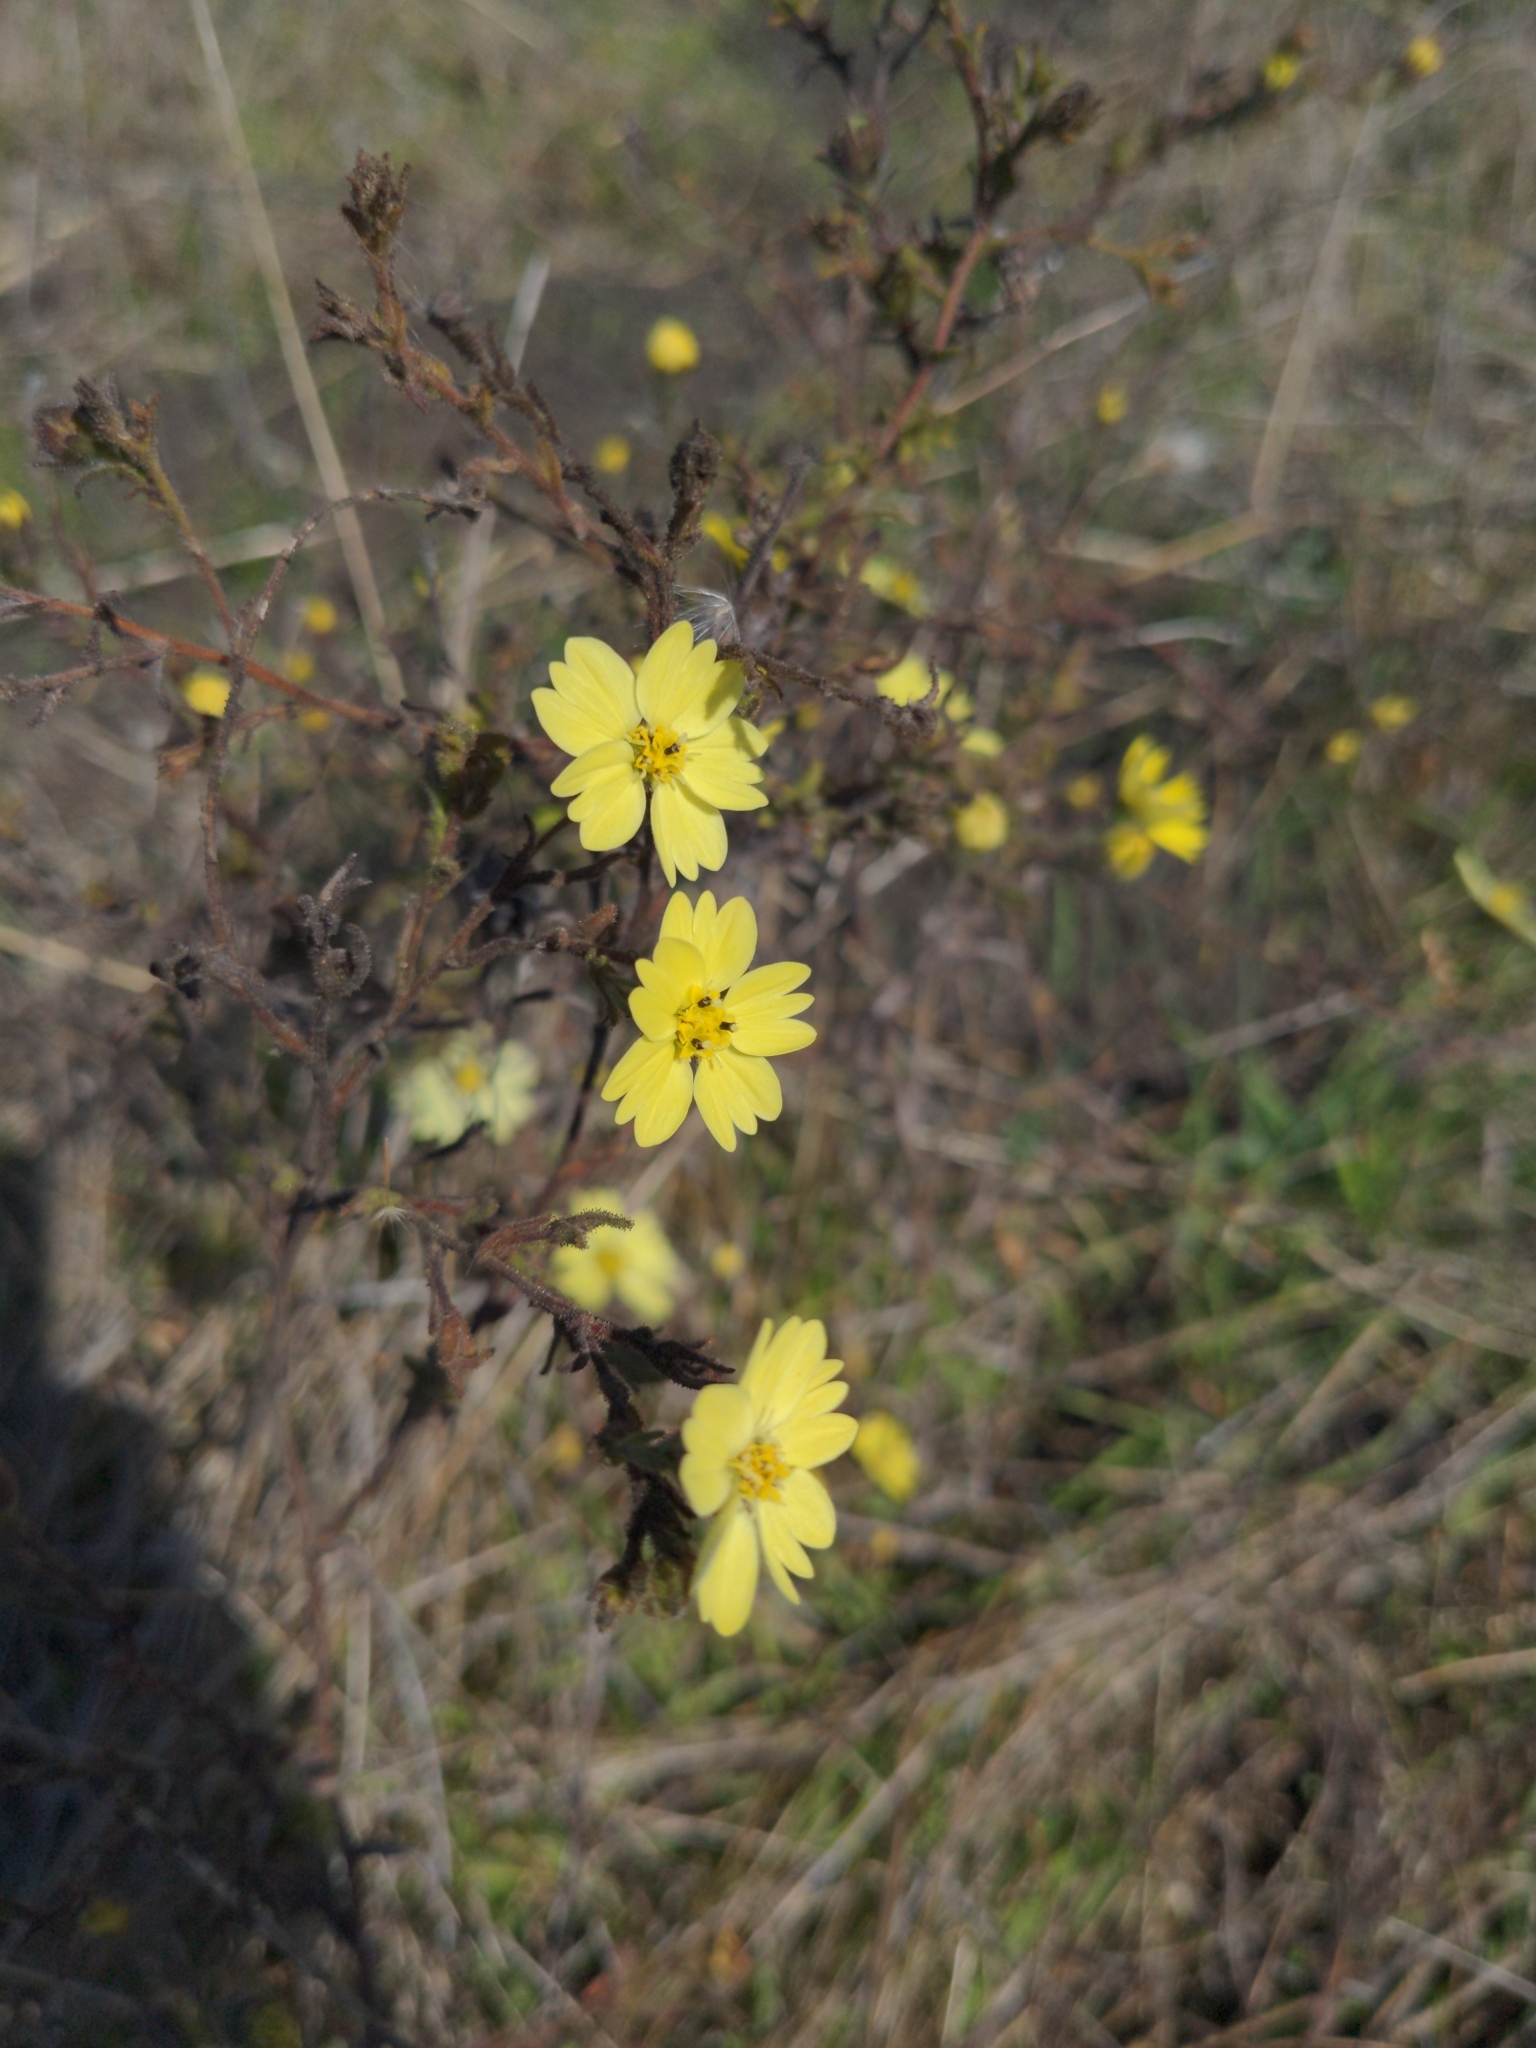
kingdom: Plantae
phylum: Tracheophyta
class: Magnoliopsida
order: Asterales
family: Asteraceae
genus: Hemizonia
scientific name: Hemizonia congesta
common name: Hayfield tarweed
